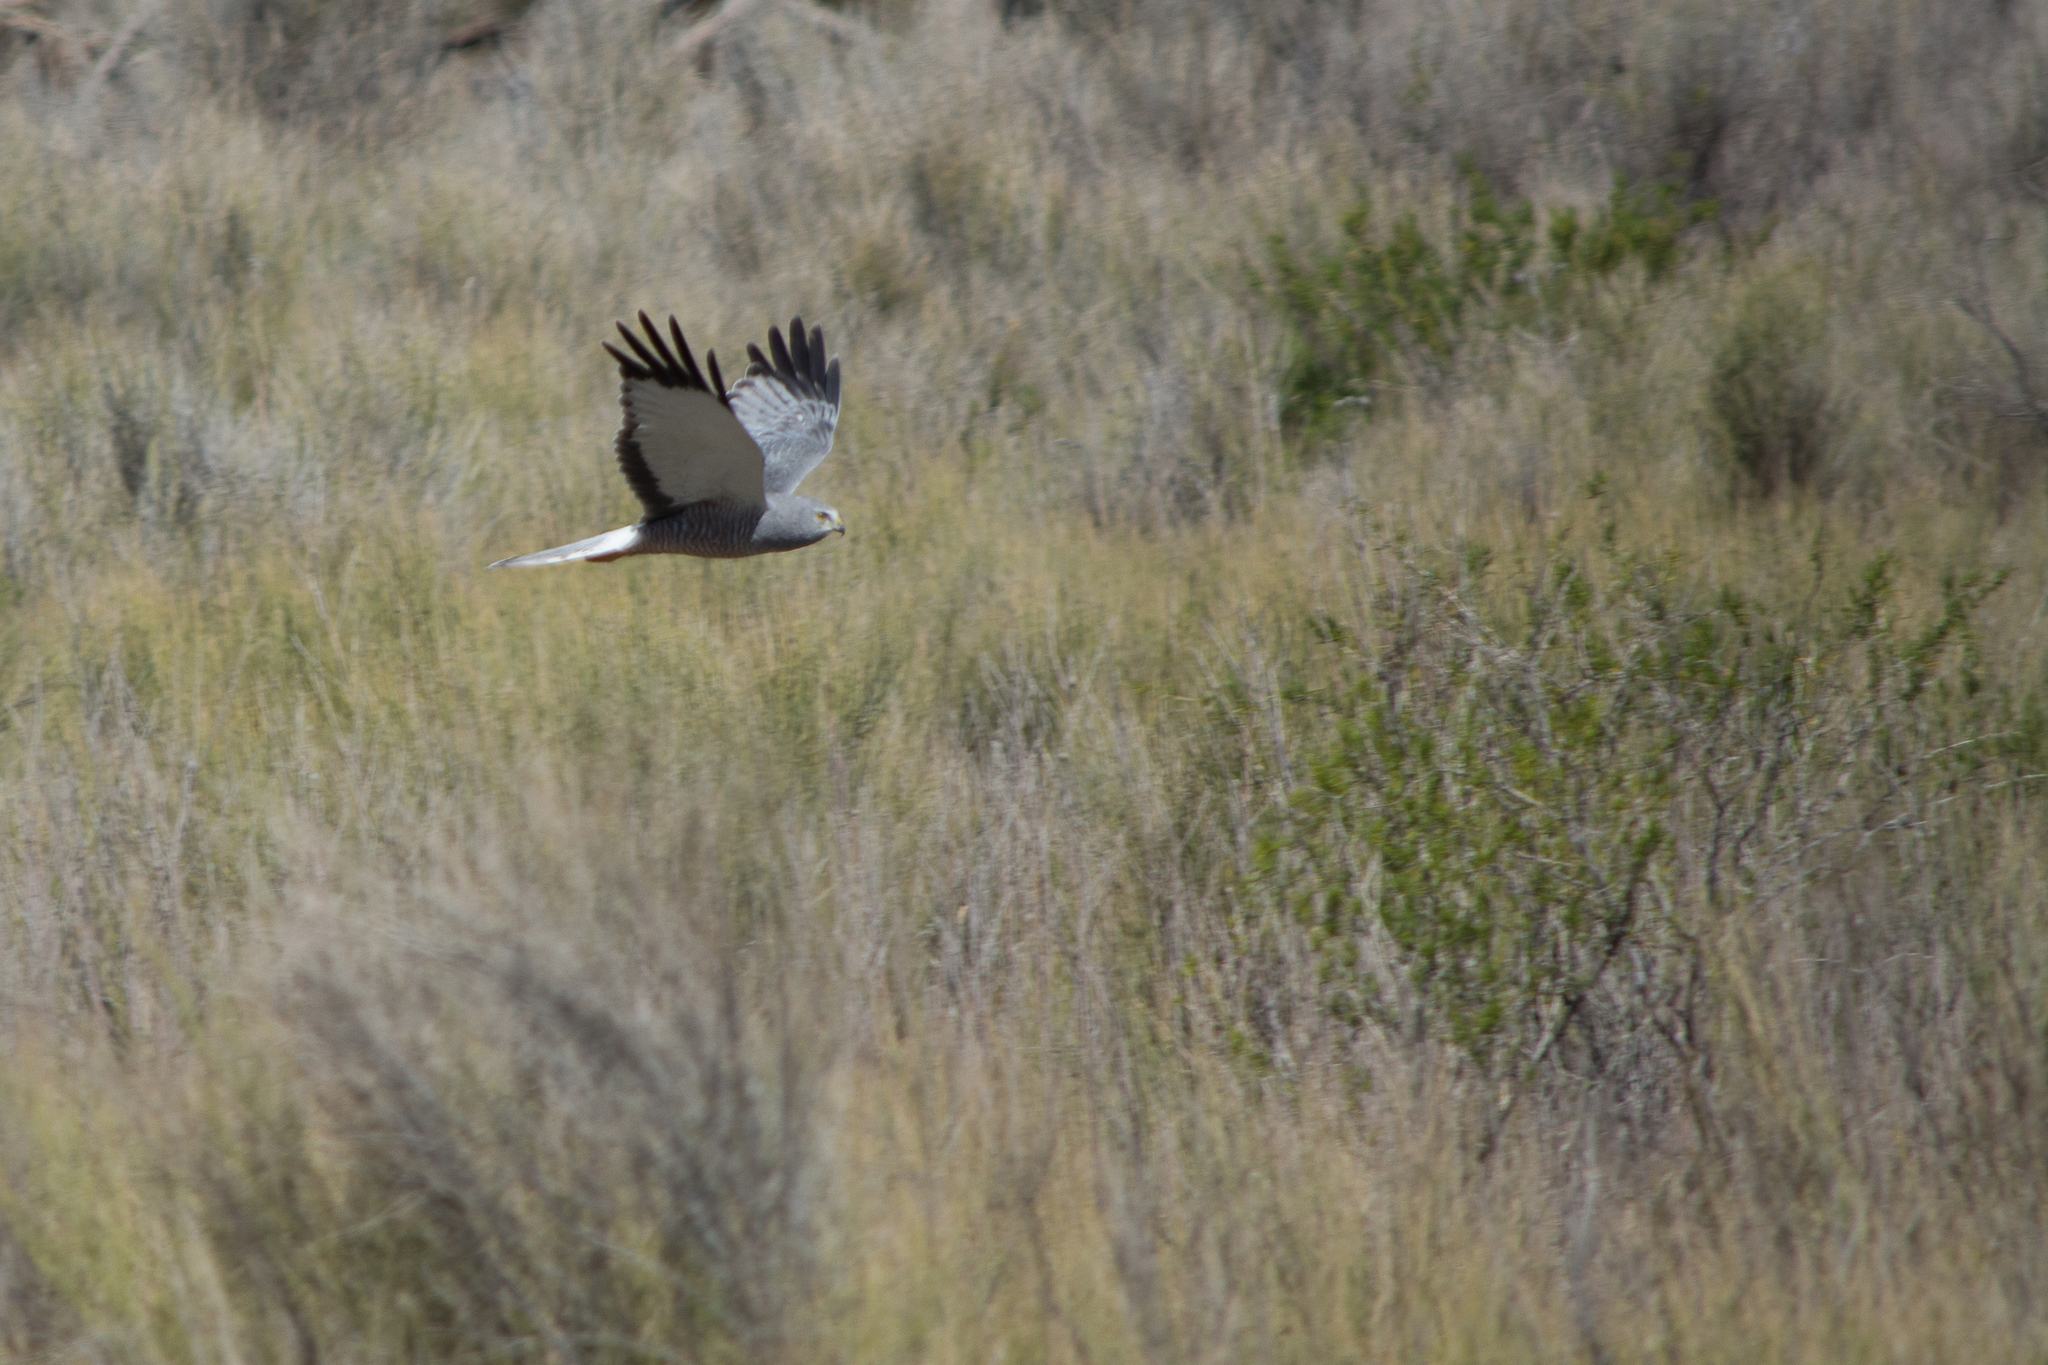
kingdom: Animalia
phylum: Chordata
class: Aves
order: Accipitriformes
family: Accipitridae
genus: Circus
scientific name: Circus cinereus
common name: Cinereous harrier
